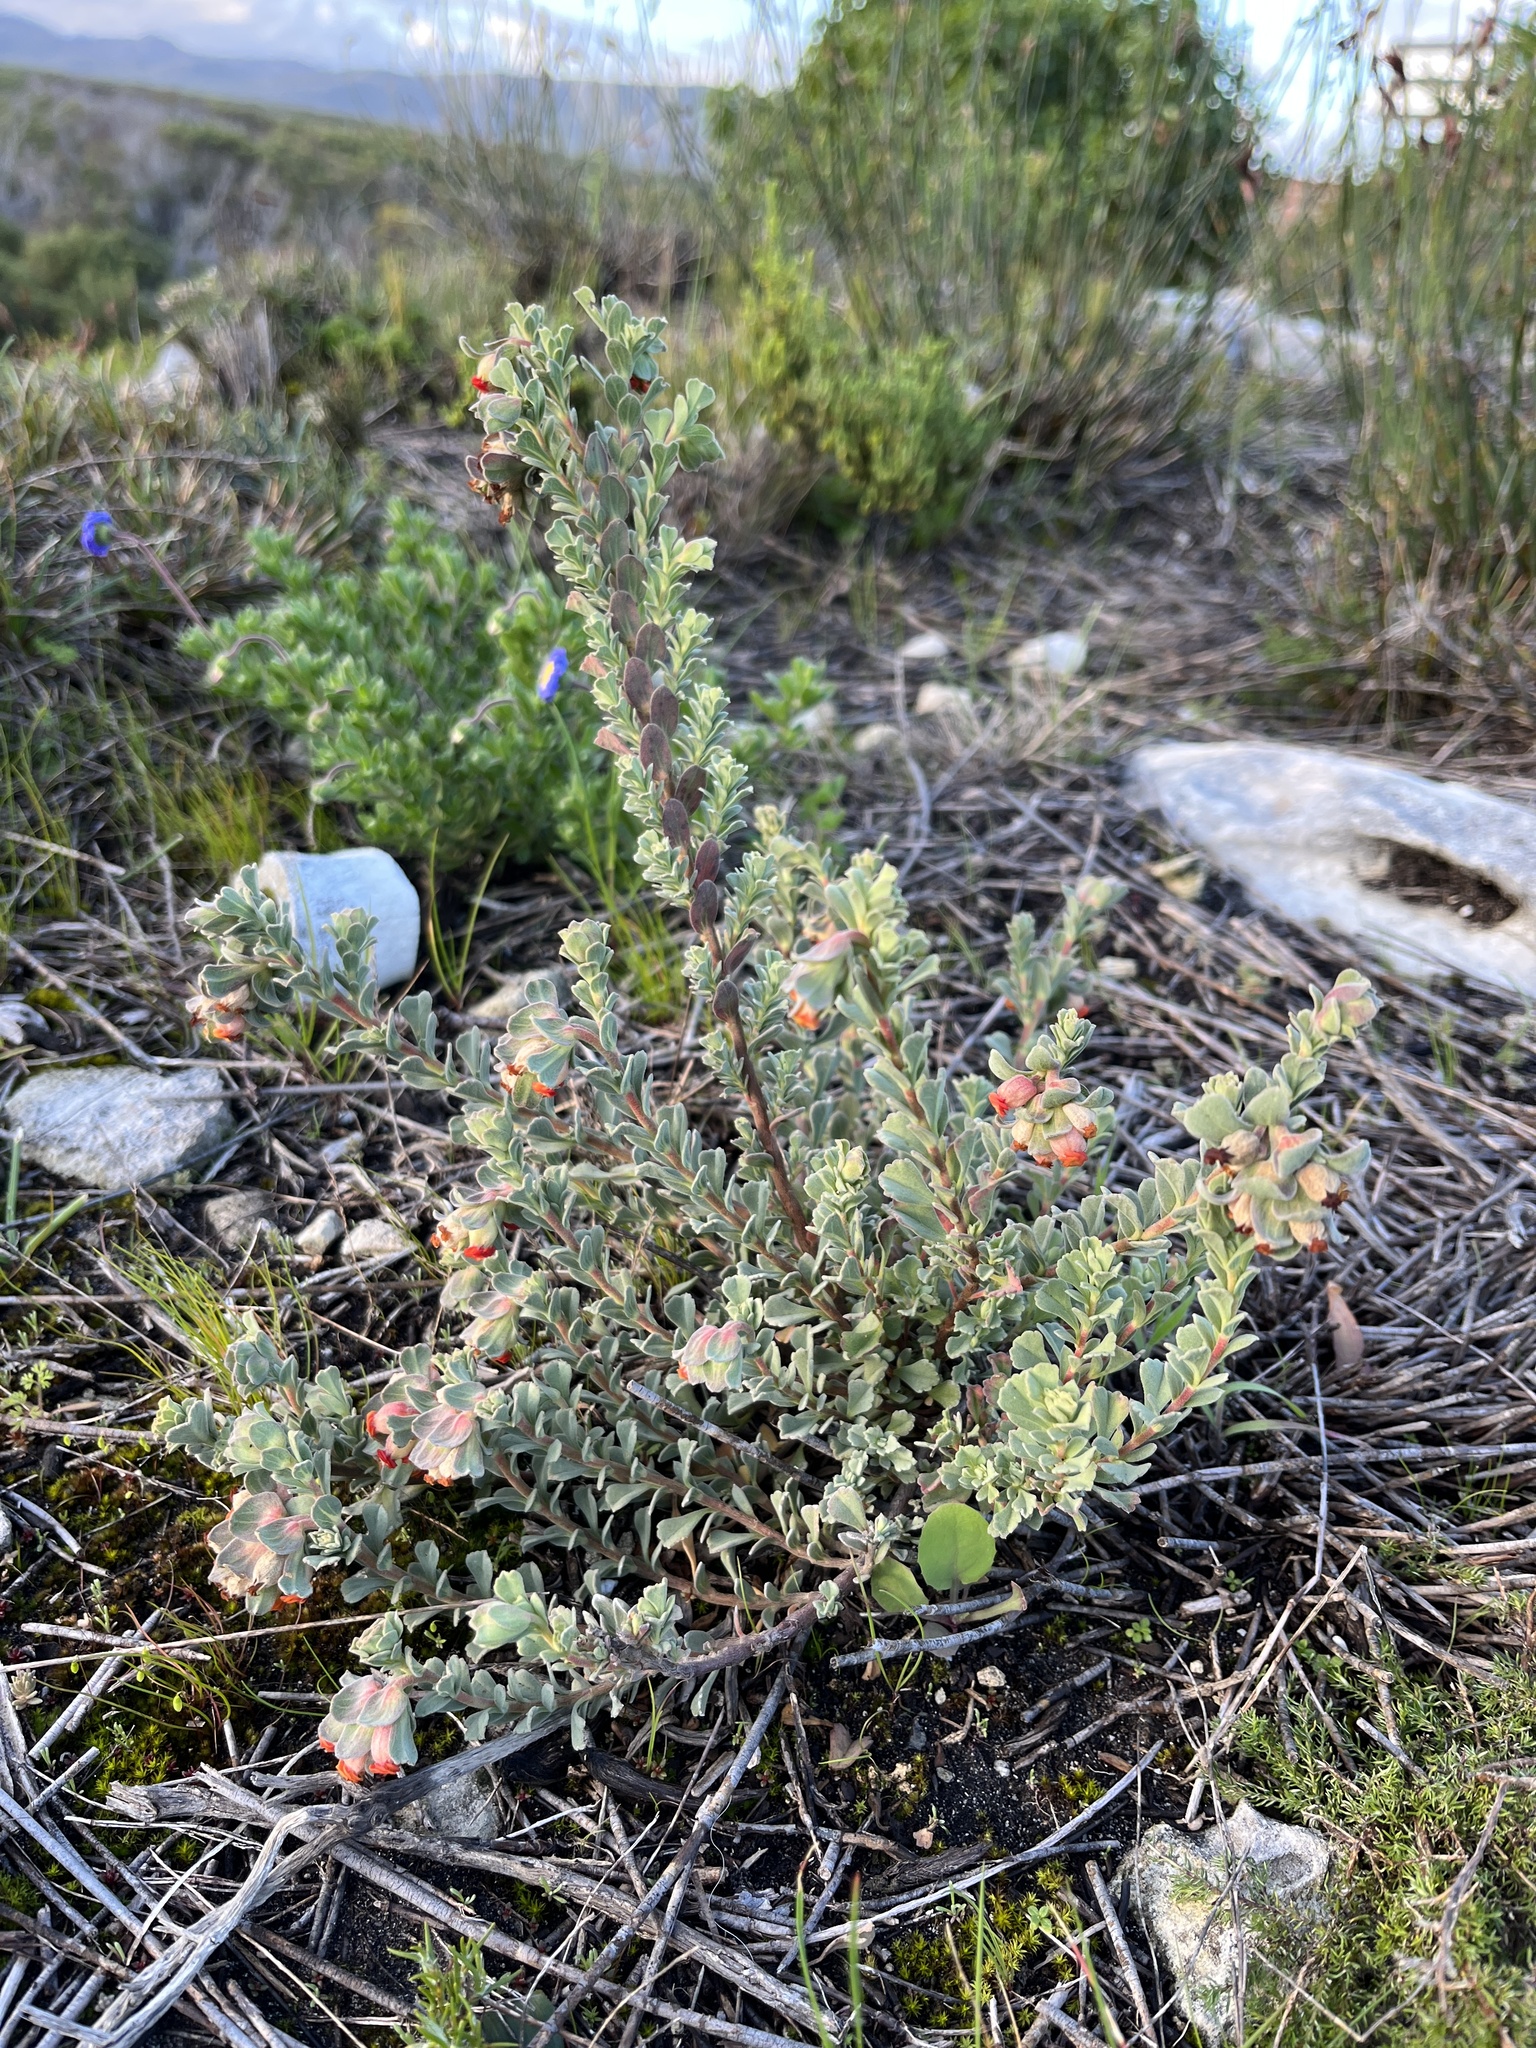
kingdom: Plantae
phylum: Tracheophyta
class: Magnoliopsida
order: Malvales
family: Malvaceae
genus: Hermannia
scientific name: Hermannia trifoliata
